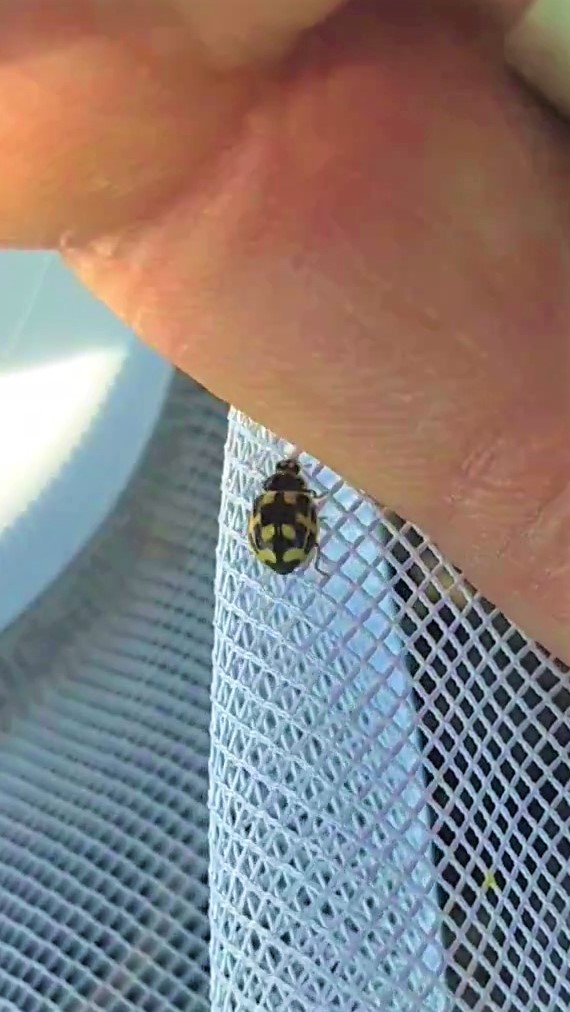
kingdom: Animalia
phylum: Arthropoda
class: Insecta
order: Coleoptera
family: Coccinellidae
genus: Propylaea
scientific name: Propylaea quatuordecimpunctata
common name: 14-spotted ladybird beetle
